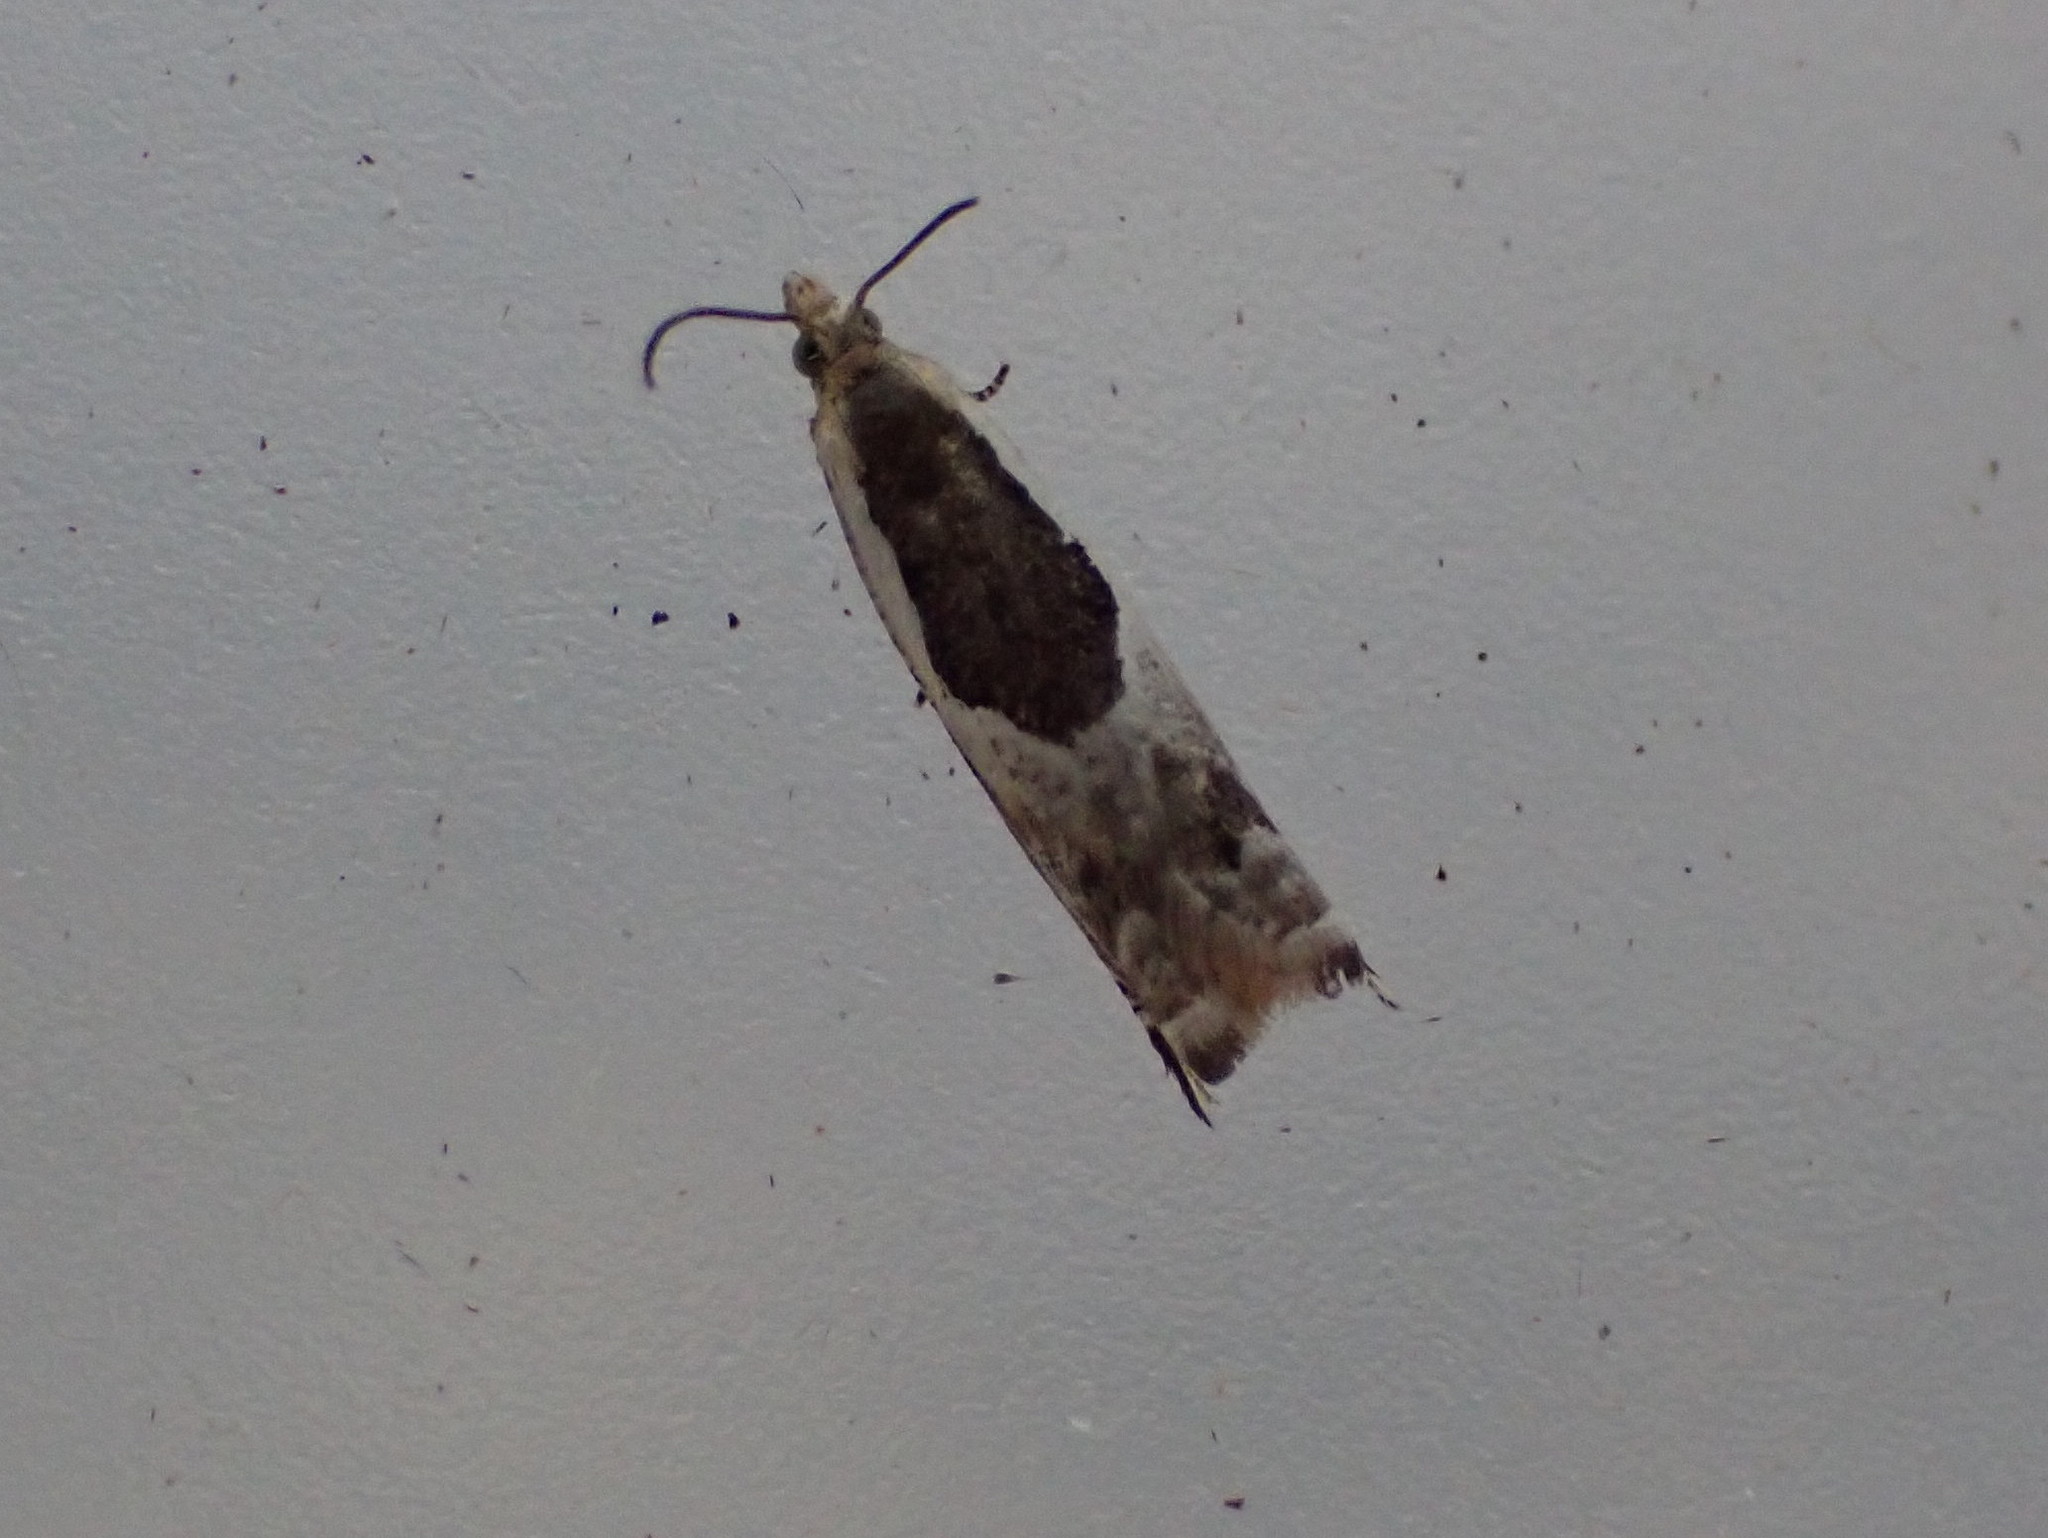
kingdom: Animalia
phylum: Arthropoda
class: Insecta
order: Lepidoptera
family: Tortricidae
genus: Ancylis
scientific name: Ancylis subaequana
